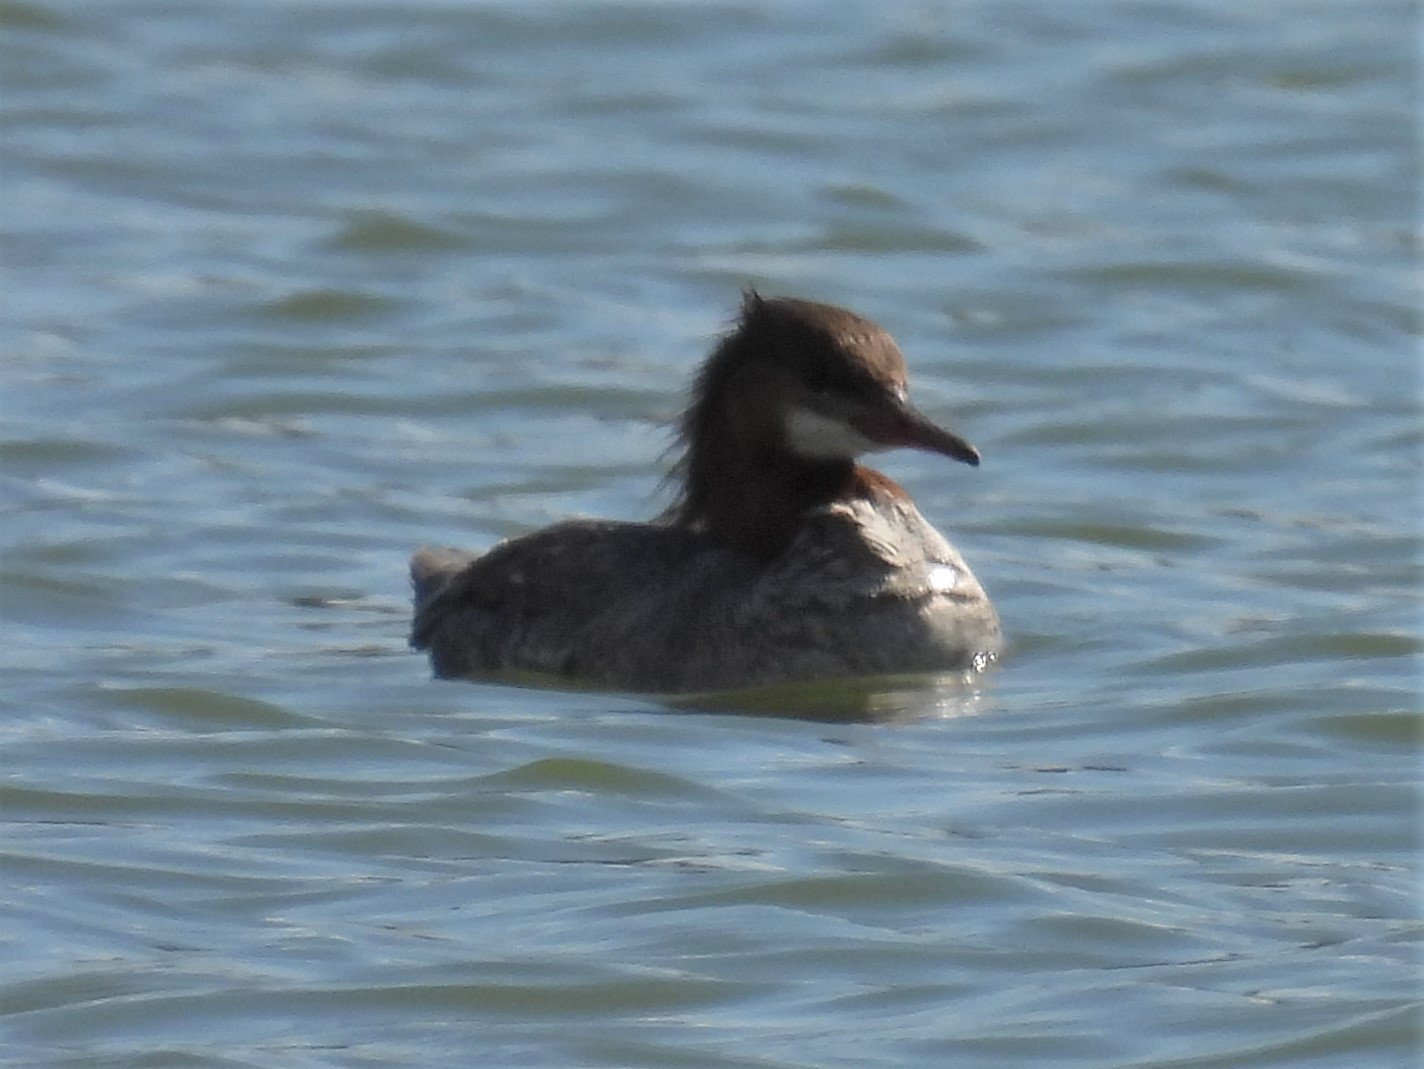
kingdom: Animalia
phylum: Chordata
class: Aves
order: Anseriformes
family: Anatidae
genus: Mergus
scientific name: Mergus merganser
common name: Common merganser
